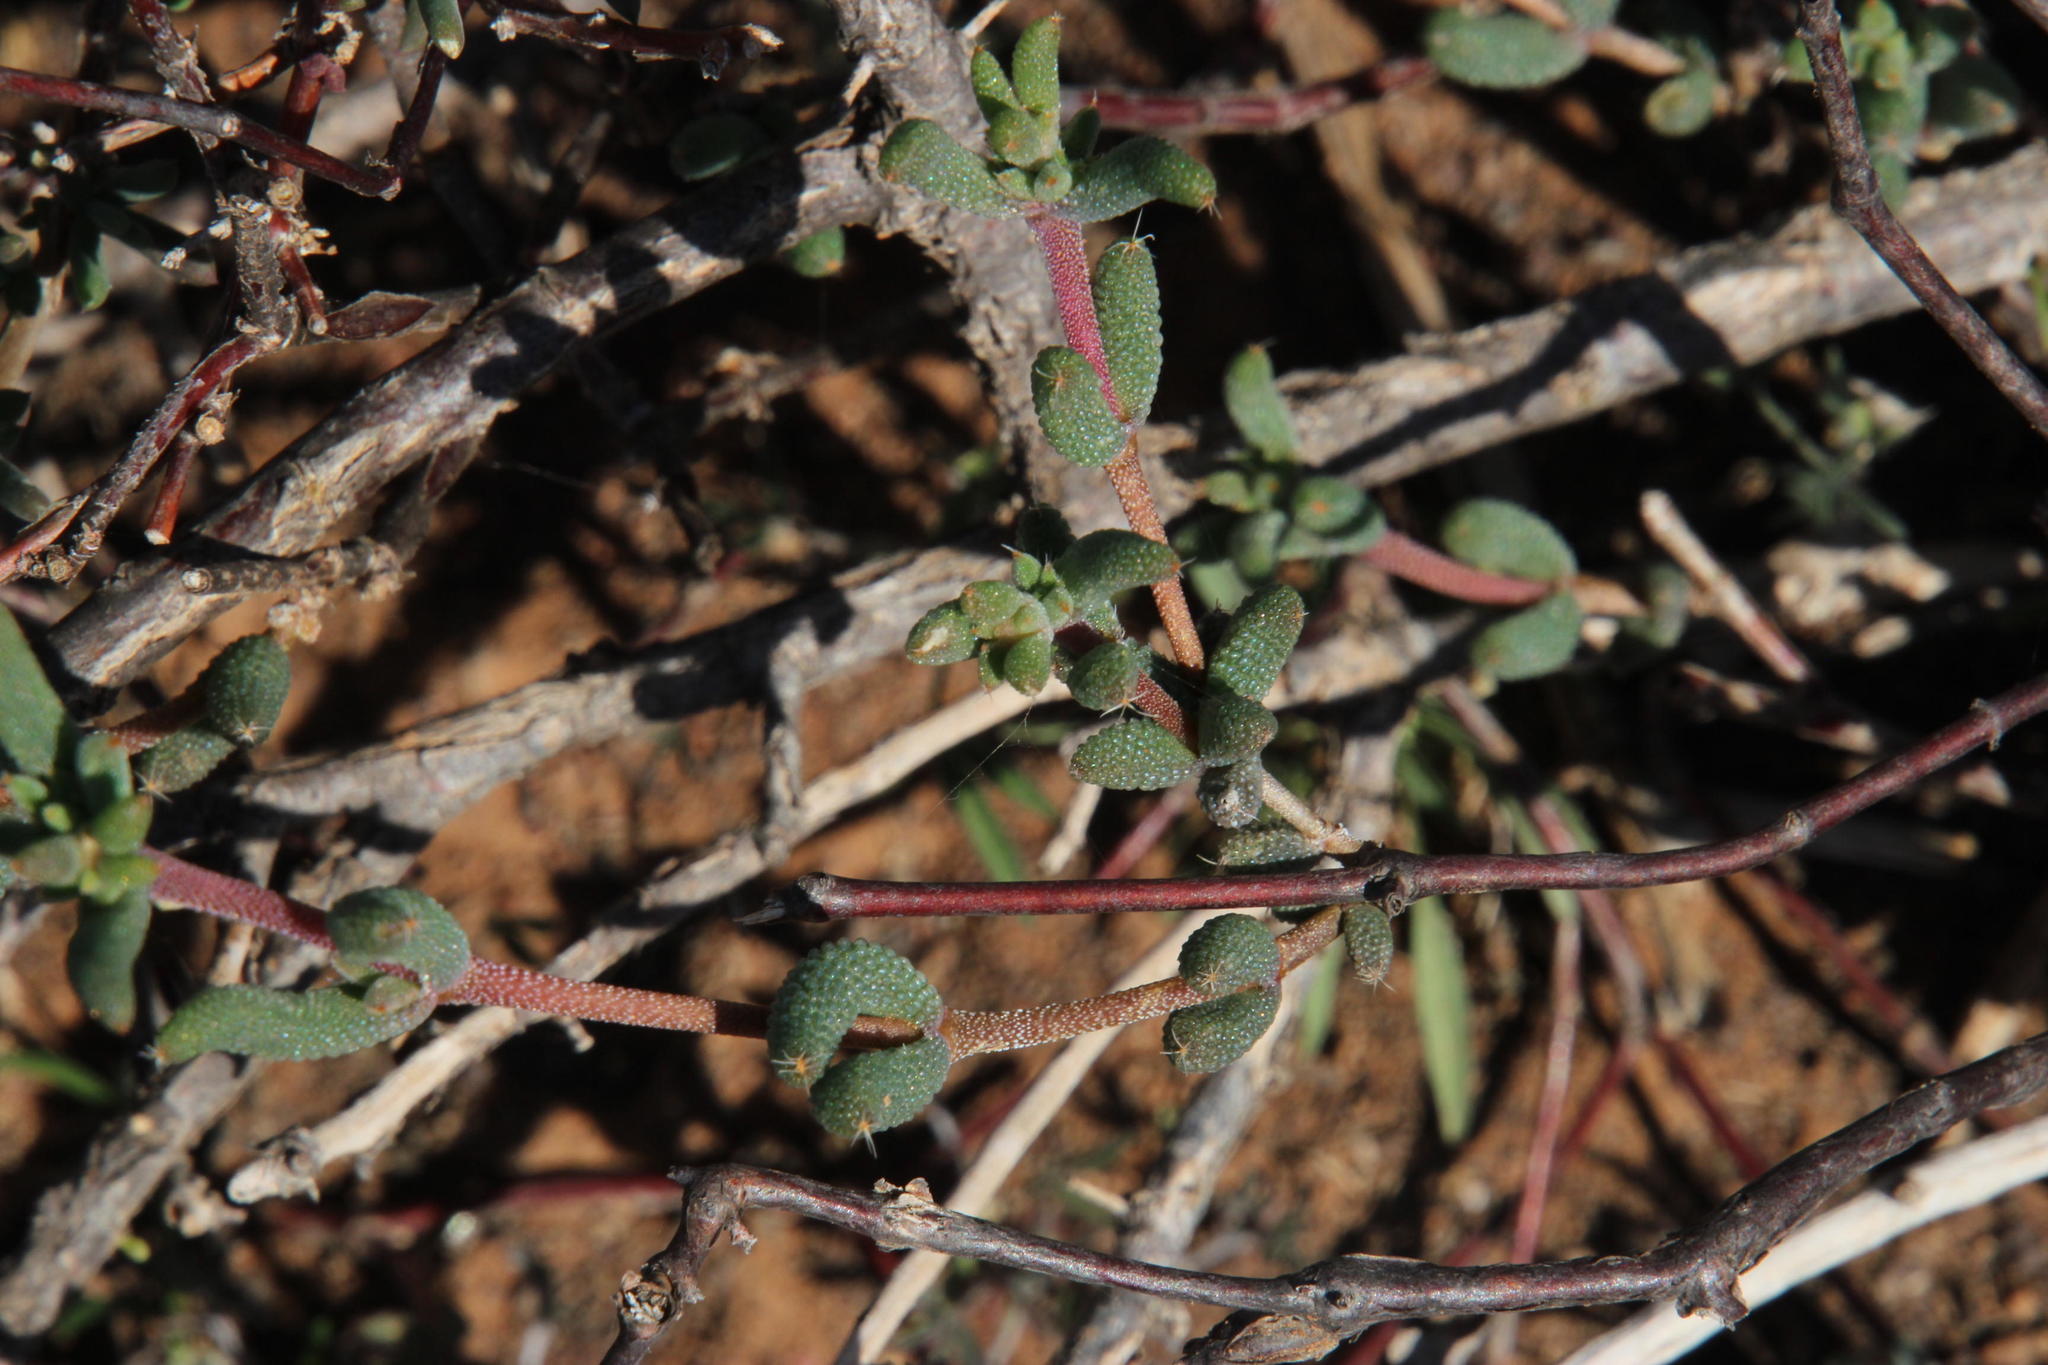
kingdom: Plantae
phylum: Tracheophyta
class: Magnoliopsida
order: Caryophyllales
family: Aizoaceae
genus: Trichodiadema
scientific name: Trichodiadema pomeridianum
